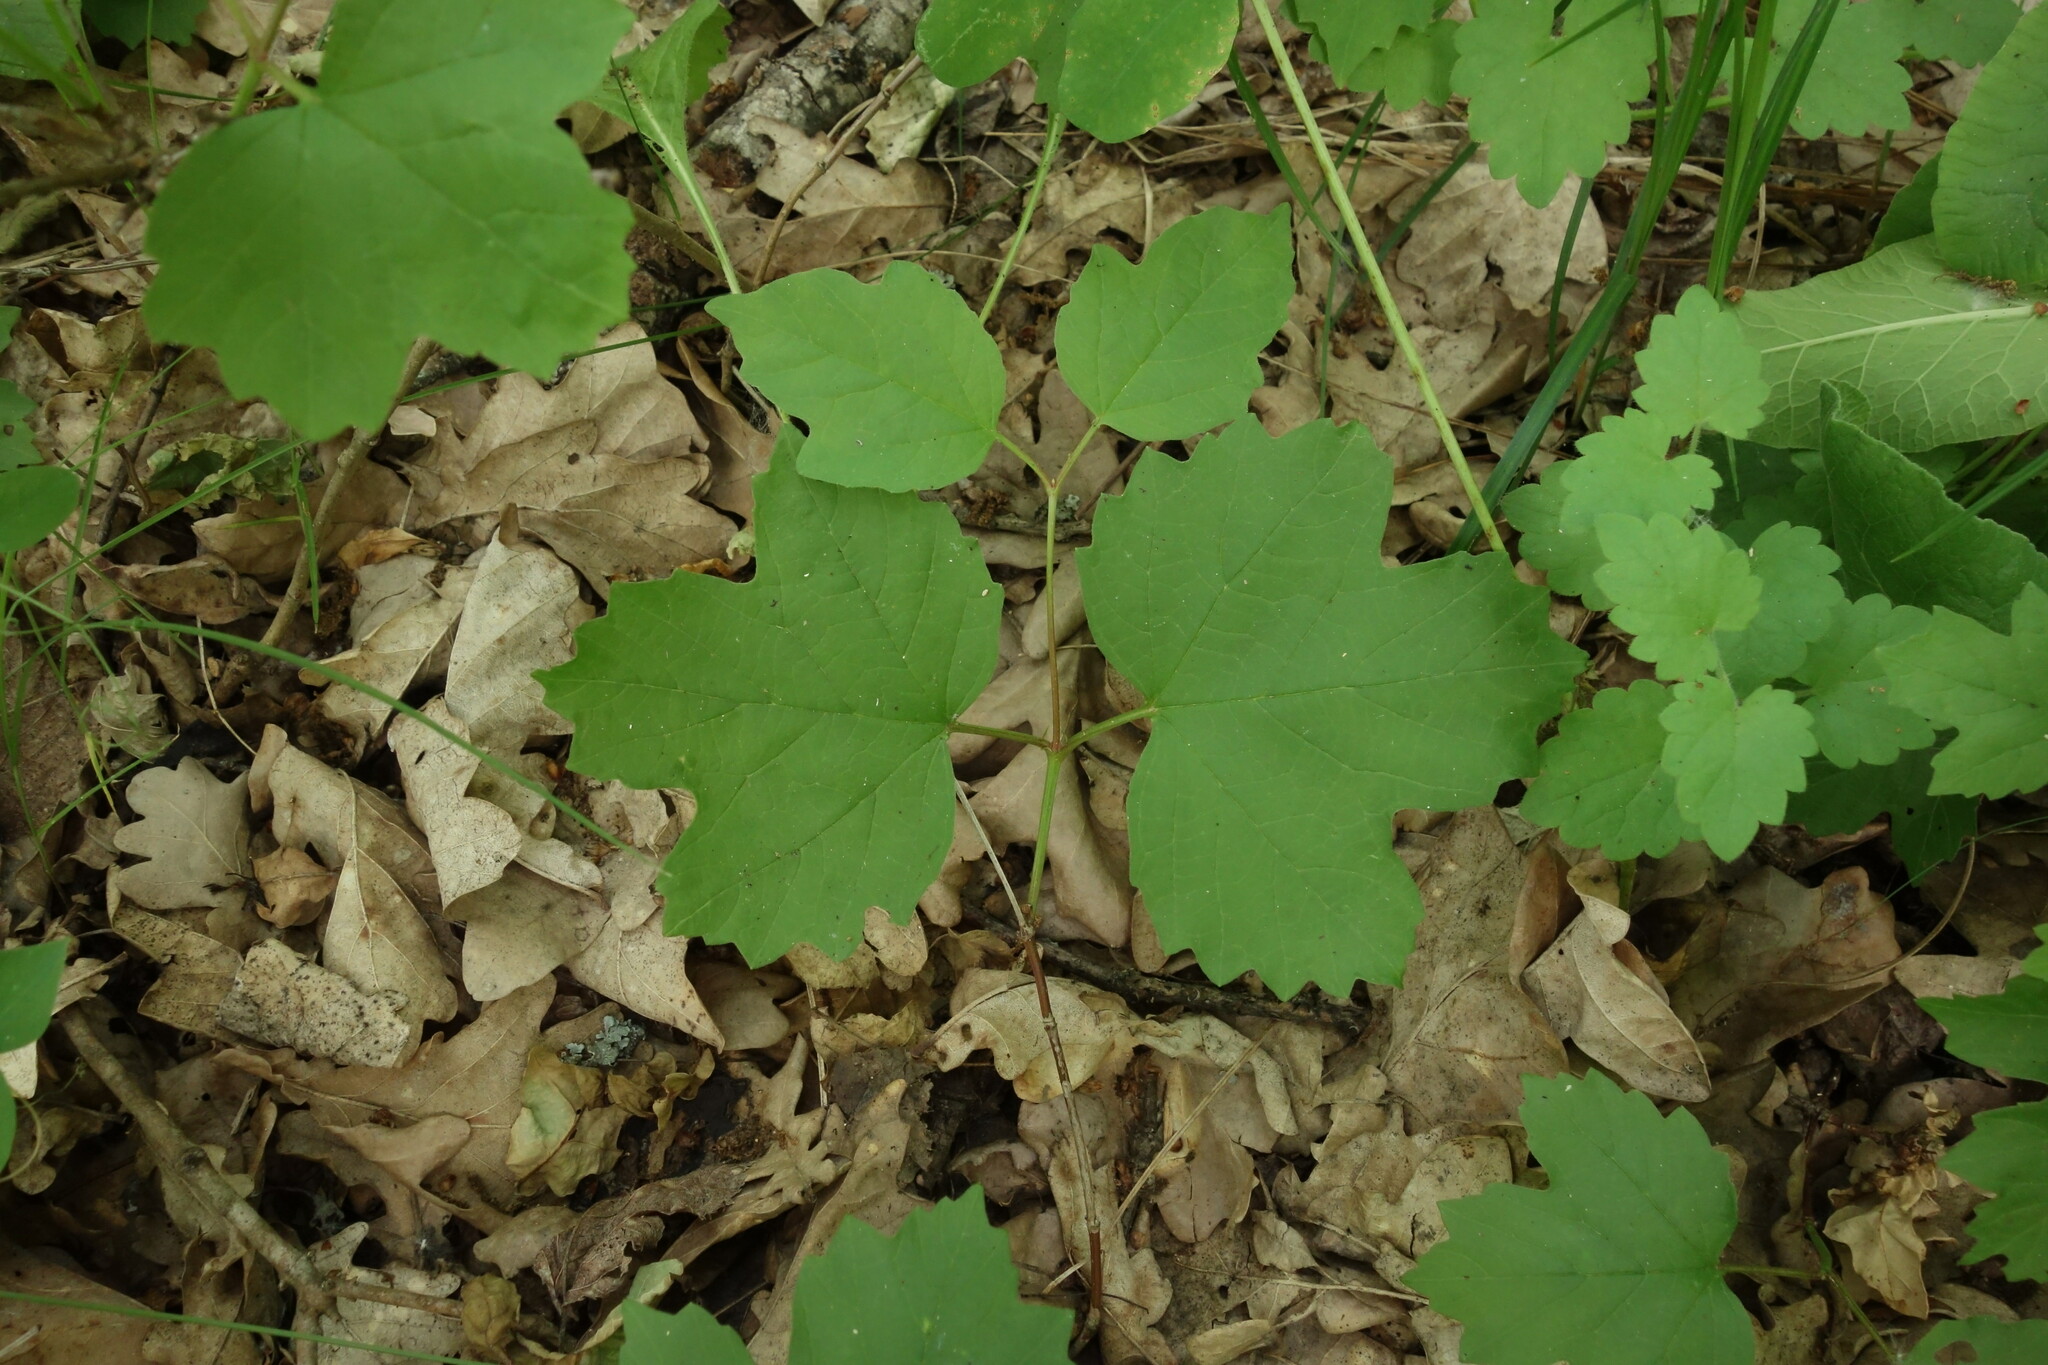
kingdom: Plantae
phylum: Tracheophyta
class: Magnoliopsida
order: Dipsacales
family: Viburnaceae
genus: Viburnum
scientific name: Viburnum opulus
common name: Guelder-rose
